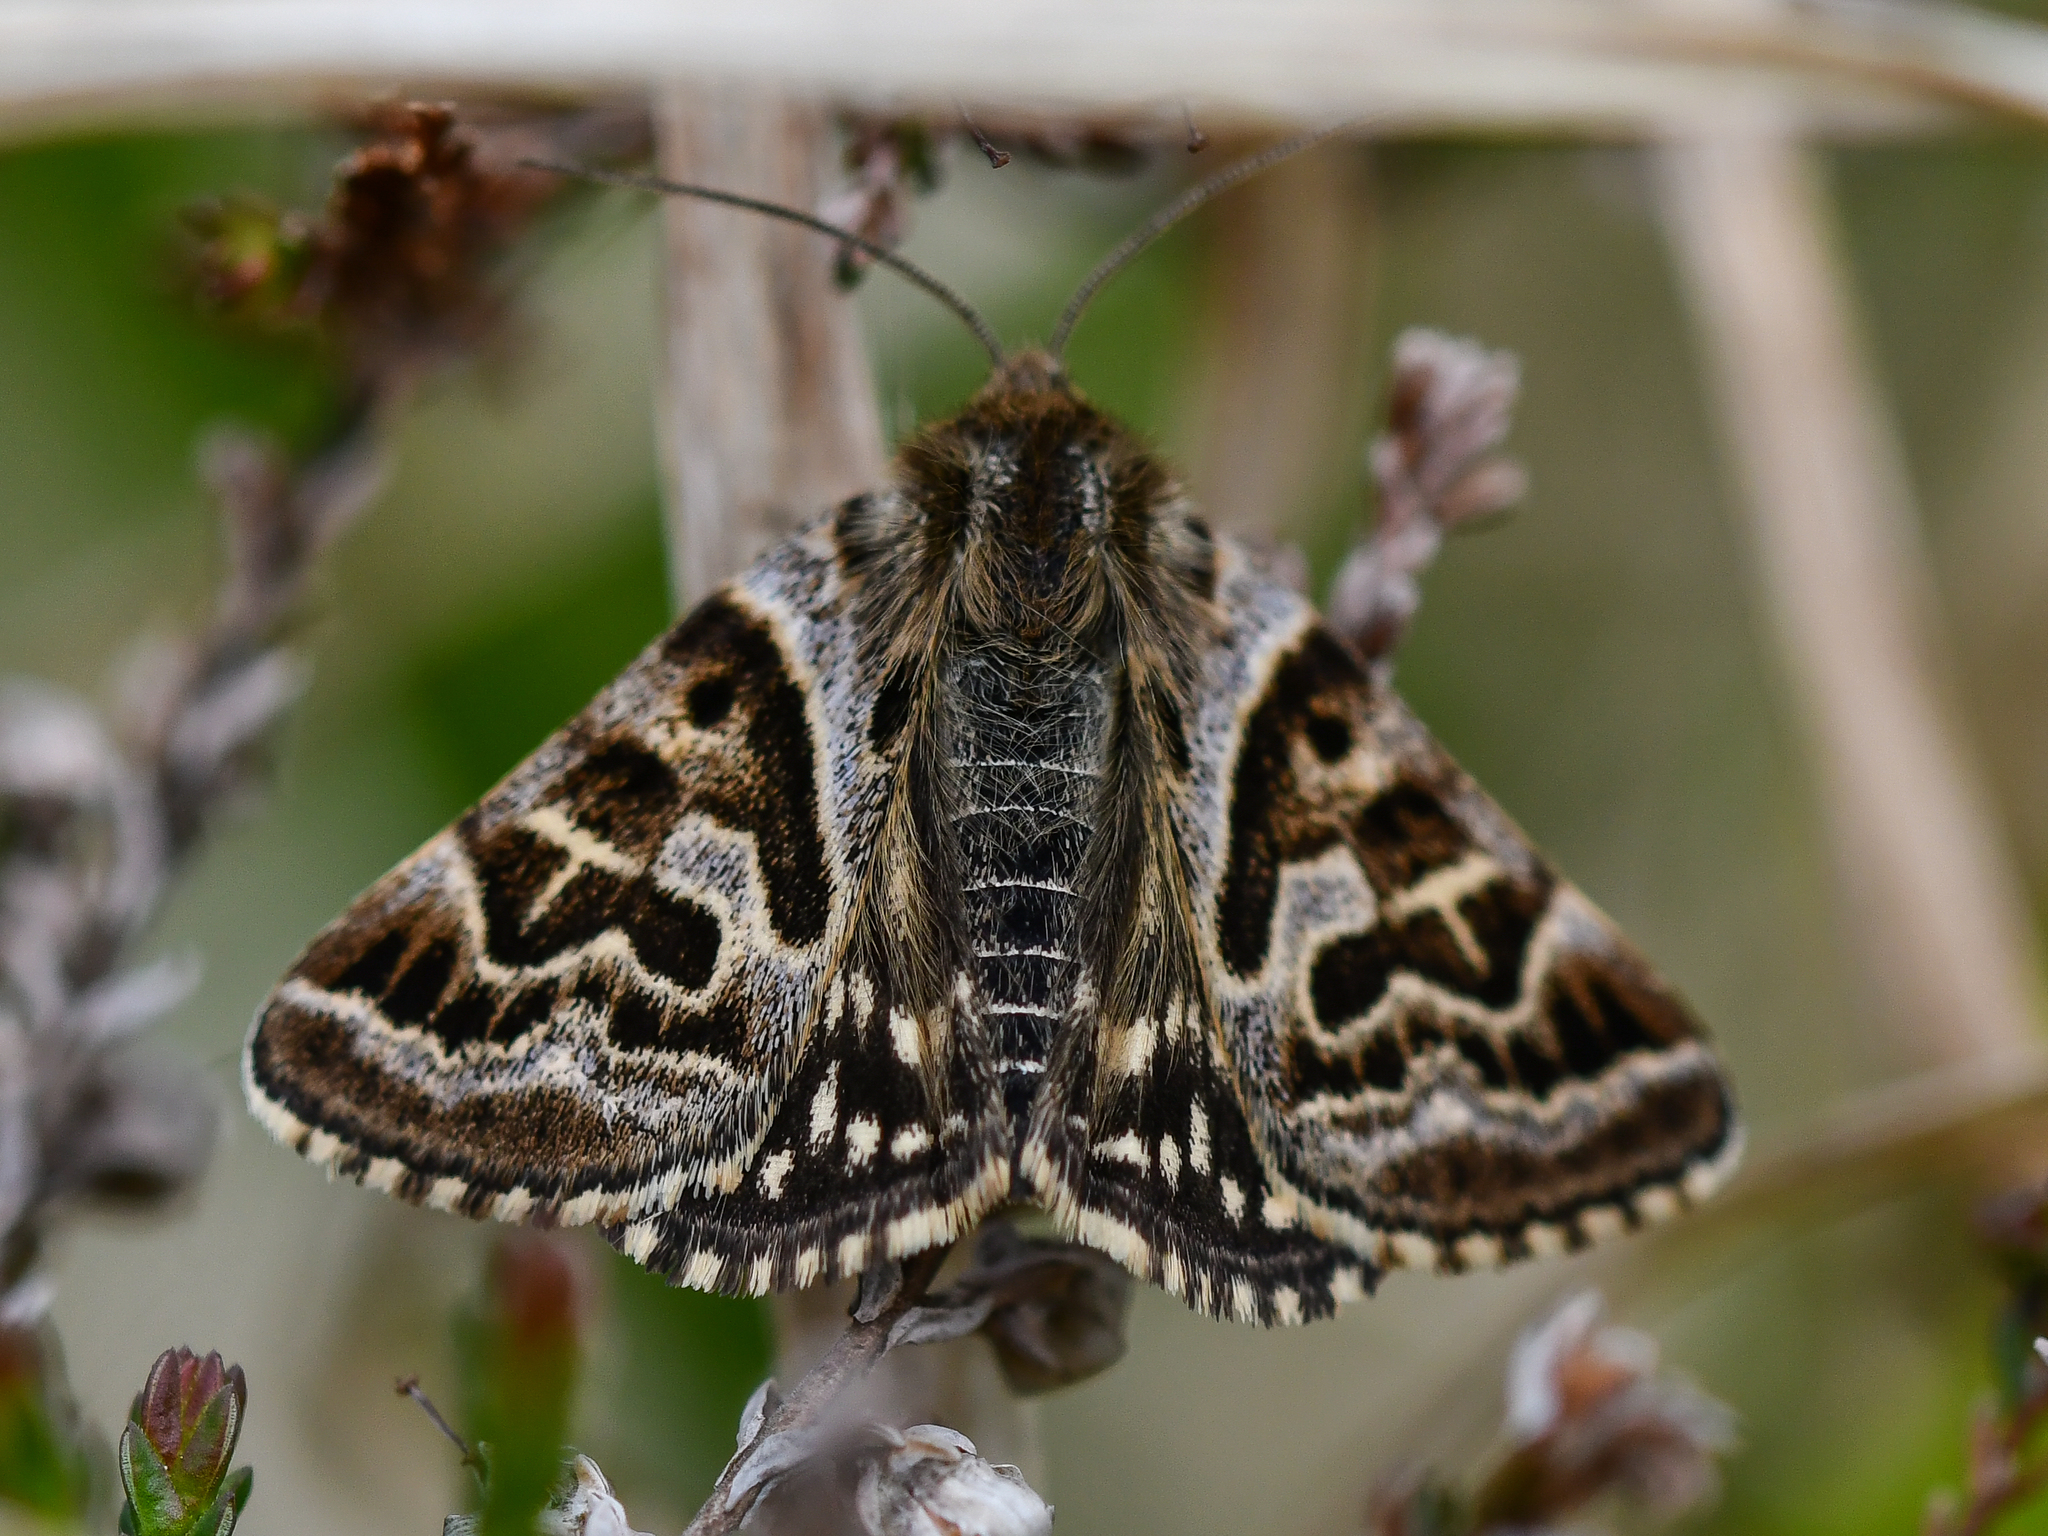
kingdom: Animalia
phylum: Arthropoda
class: Insecta
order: Lepidoptera
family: Erebidae
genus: Callistege
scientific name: Callistege mi
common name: Mother shipton
